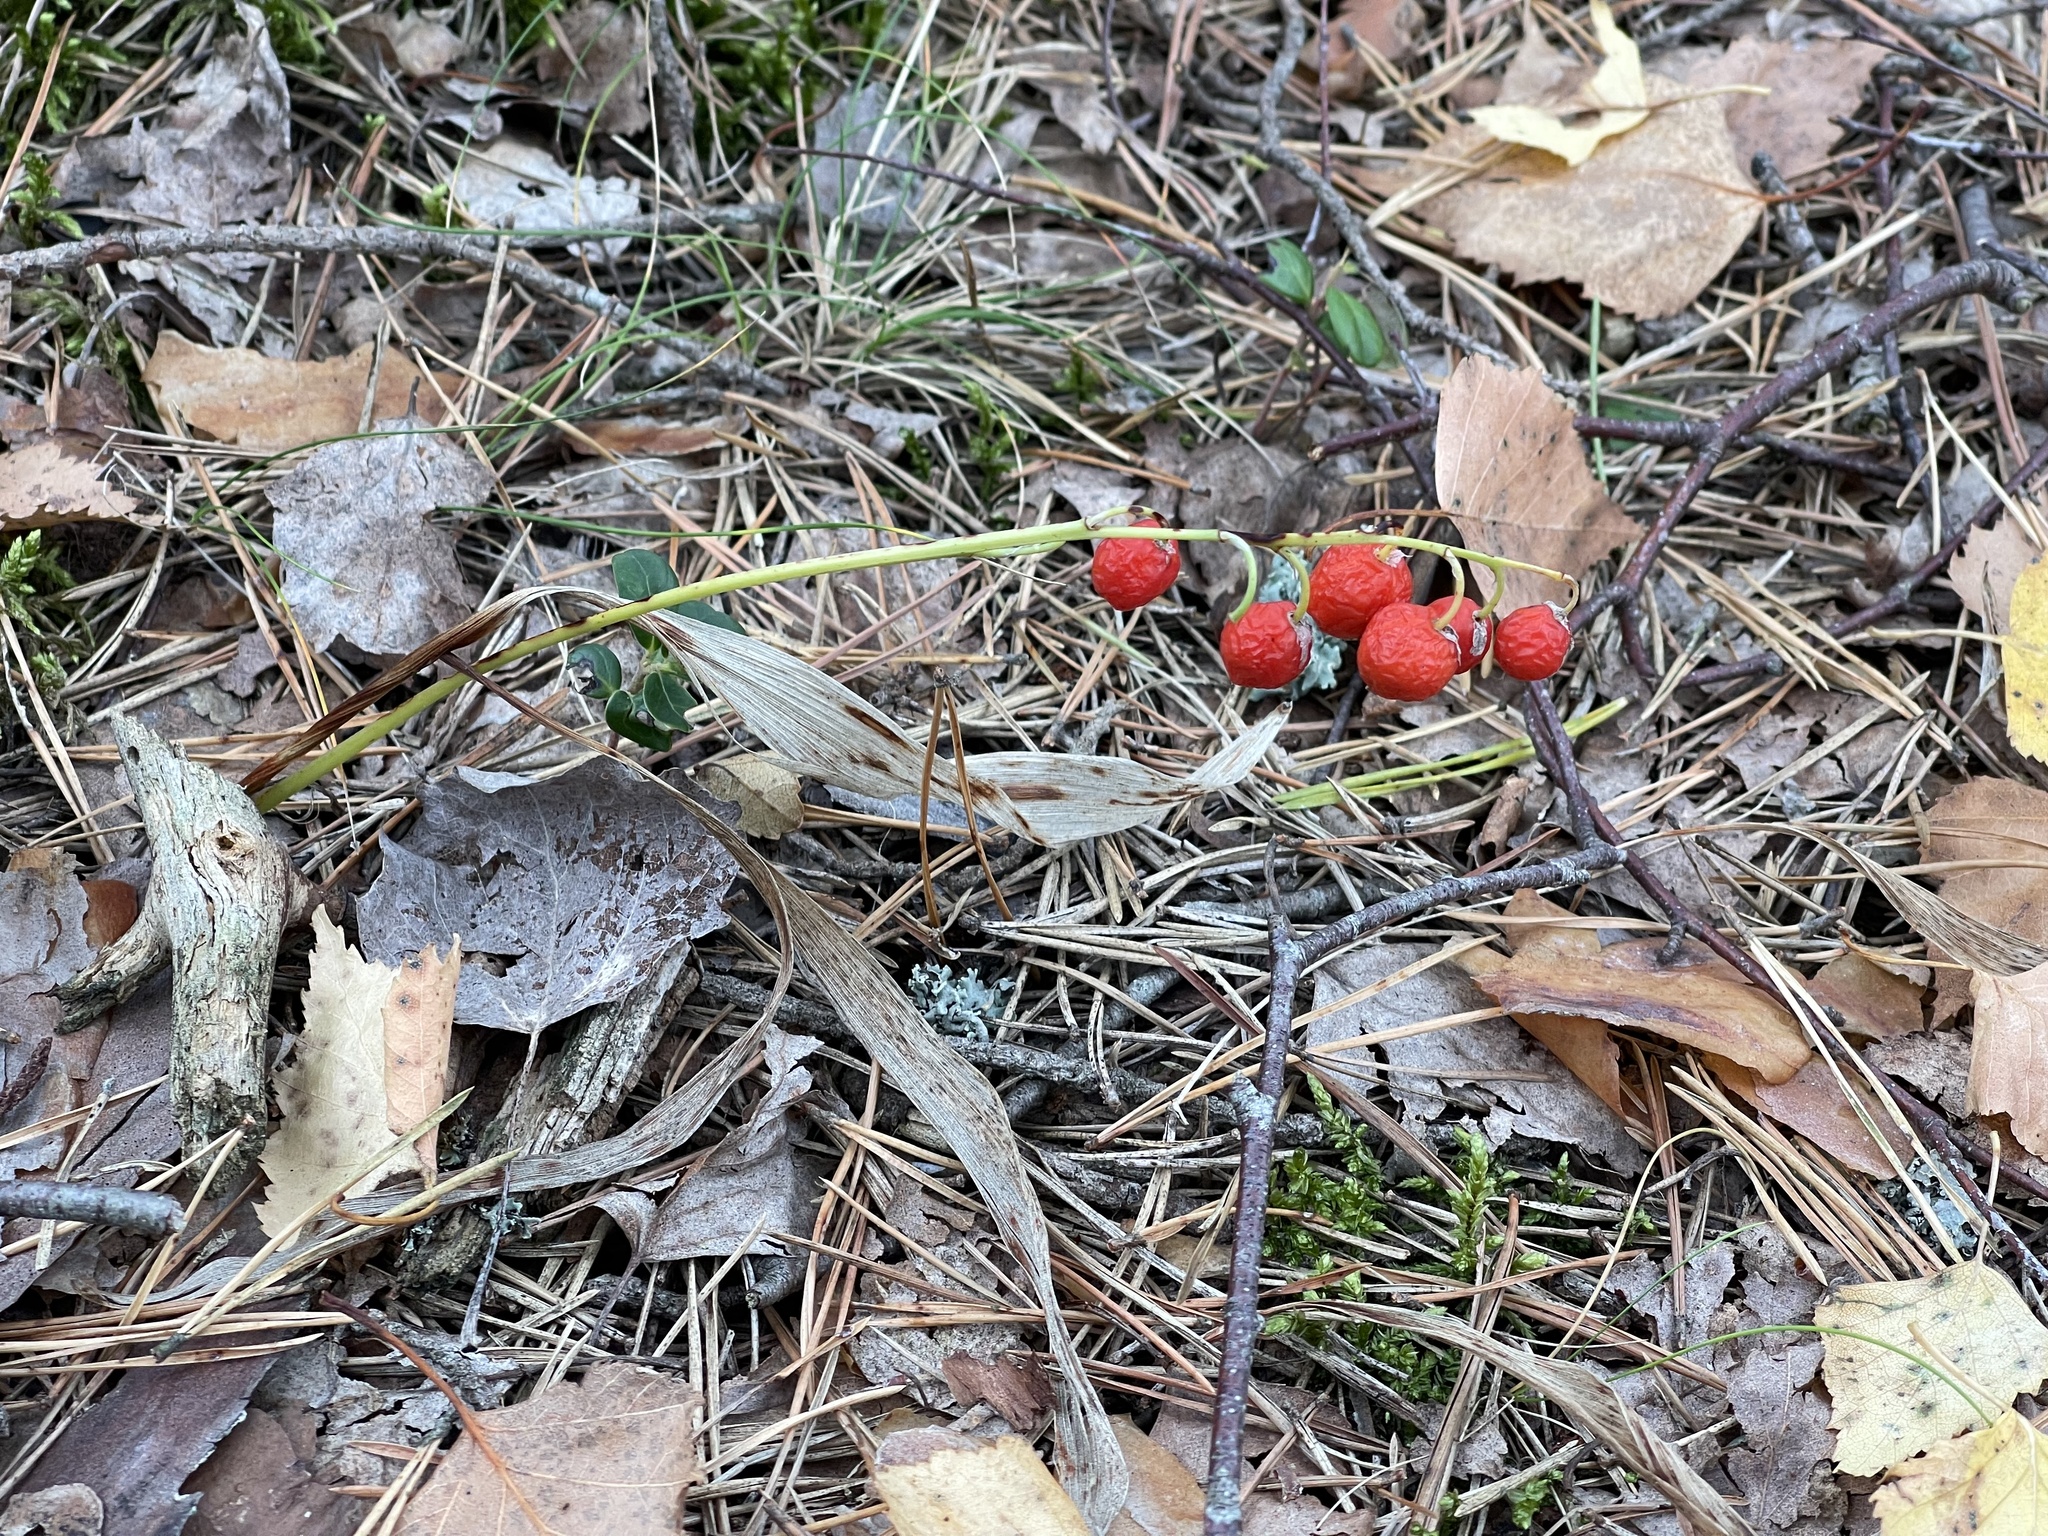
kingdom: Plantae
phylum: Tracheophyta
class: Liliopsida
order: Asparagales
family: Asparagaceae
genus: Convallaria
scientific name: Convallaria majalis
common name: Lily-of-the-valley
